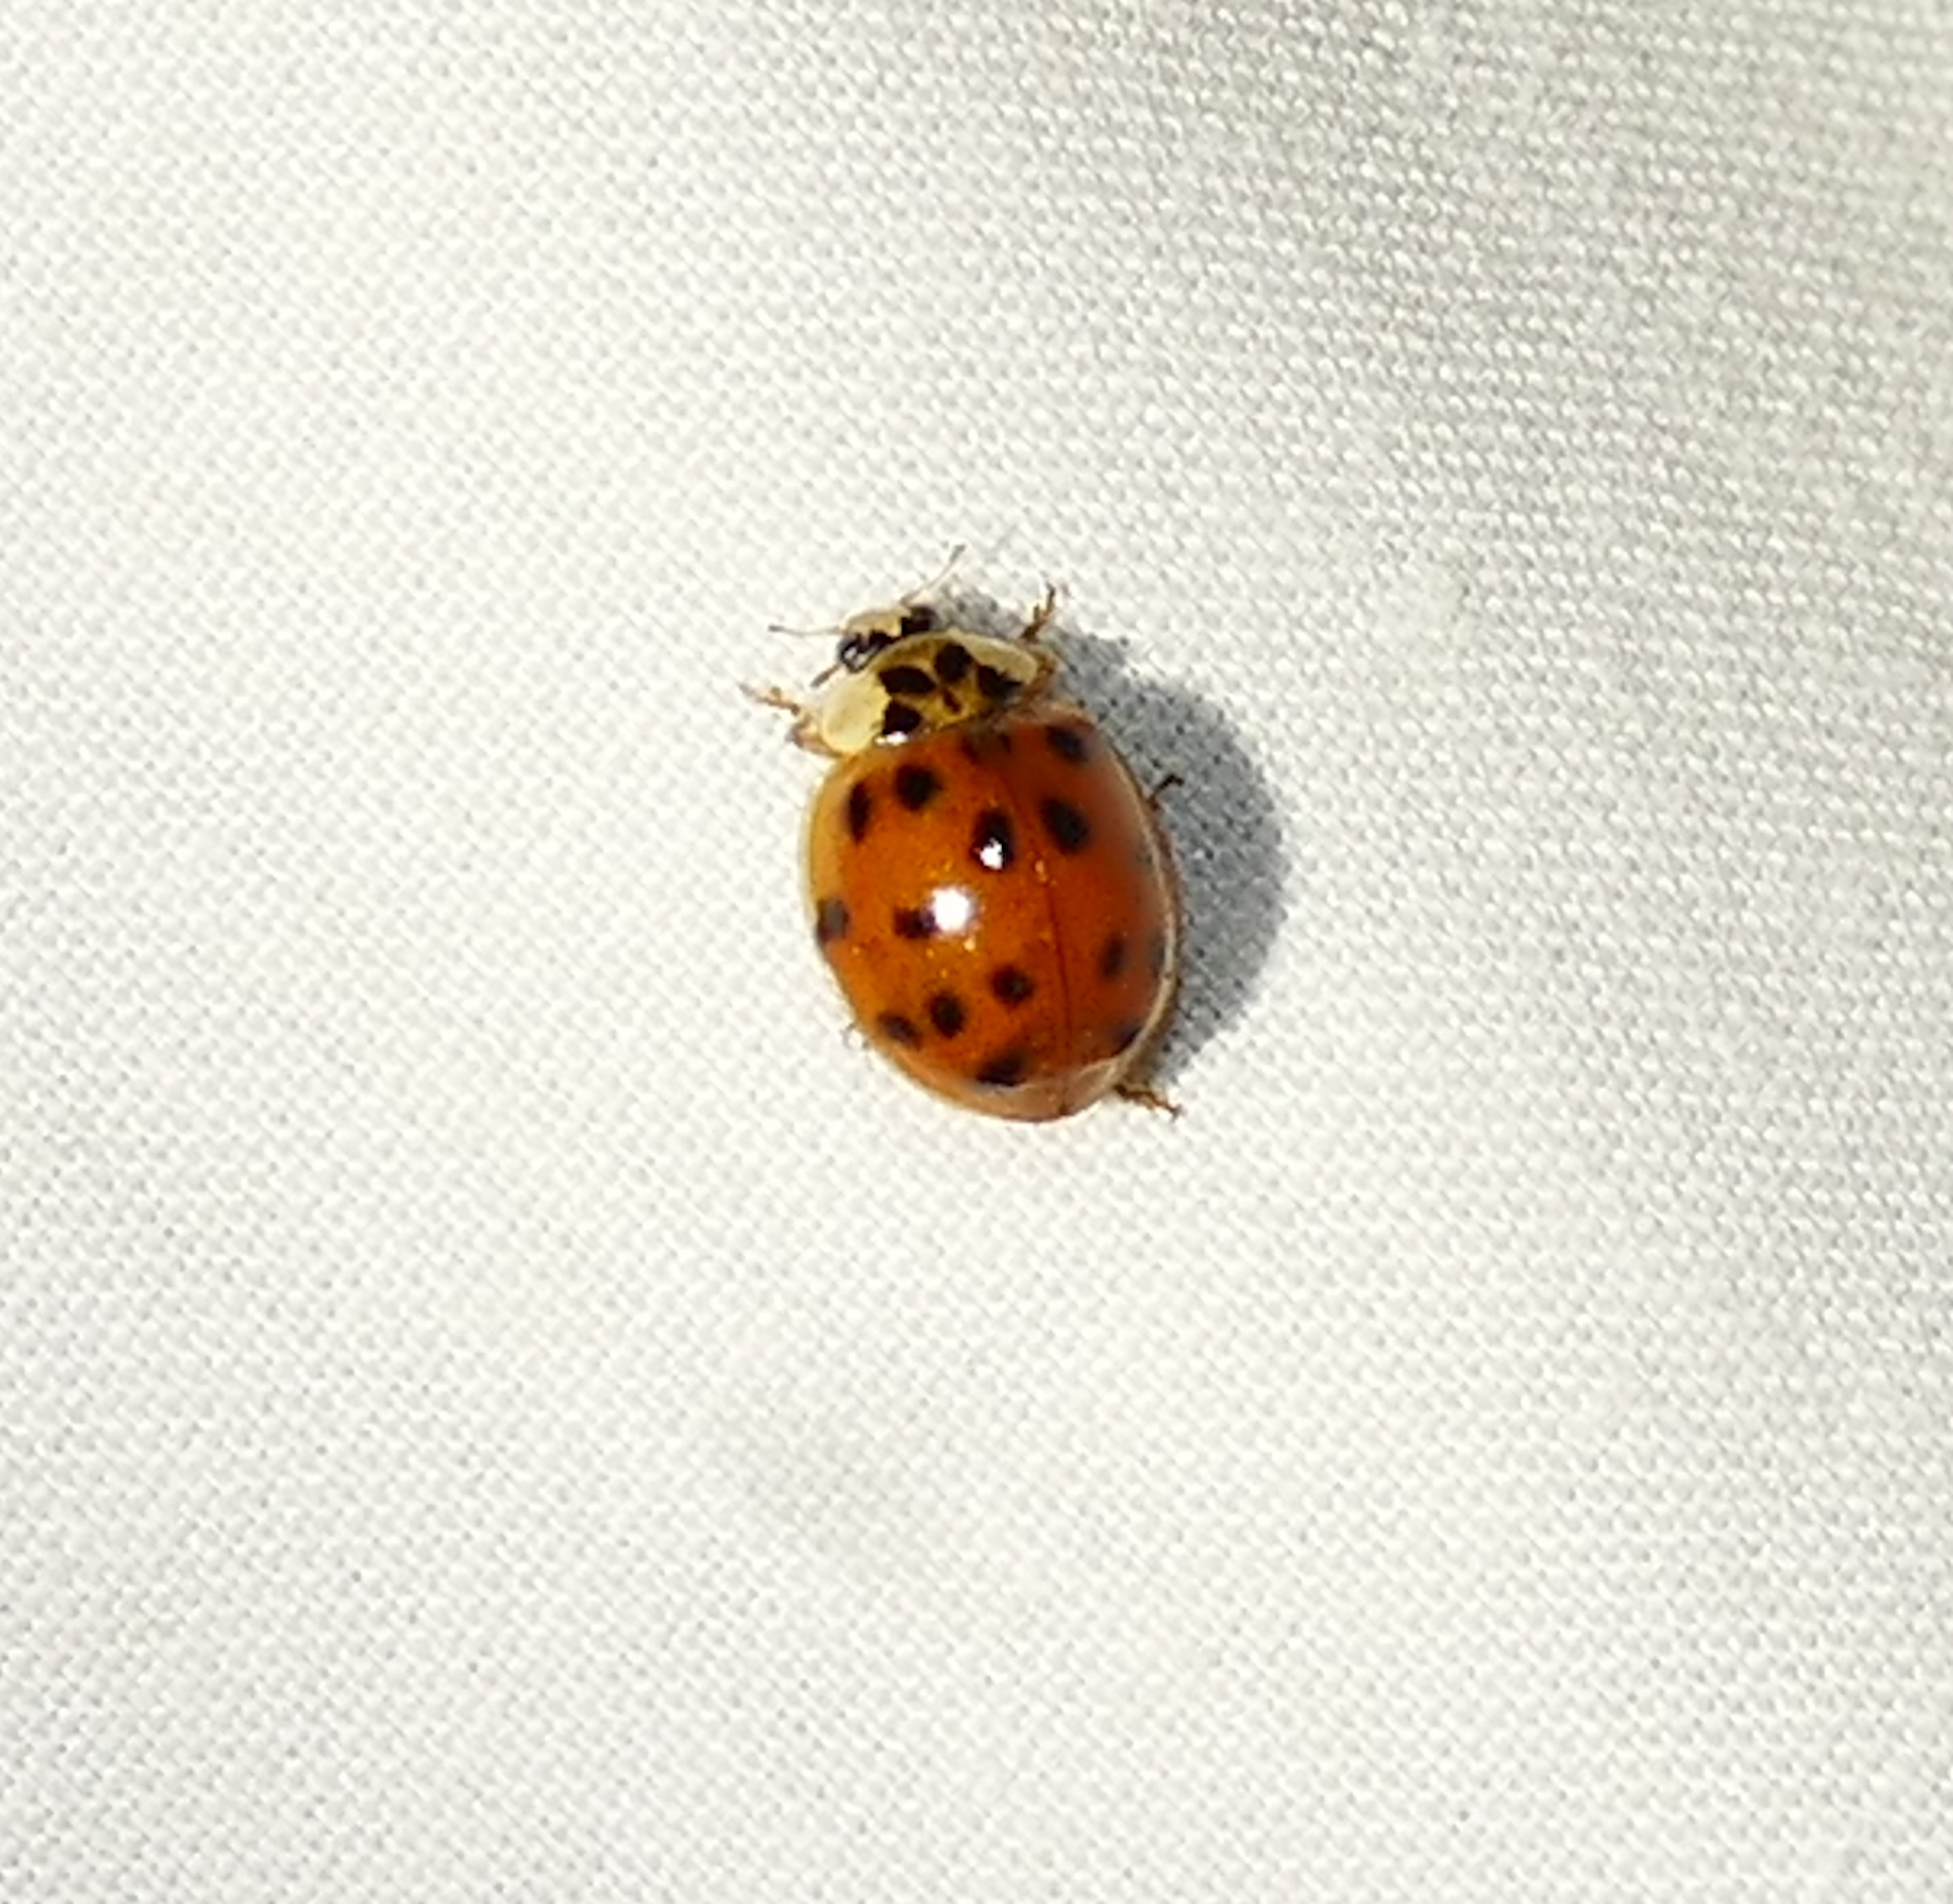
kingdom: Animalia
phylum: Arthropoda
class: Insecta
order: Coleoptera
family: Coccinellidae
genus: Harmonia
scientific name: Harmonia axyridis
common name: Harlequin ladybird
